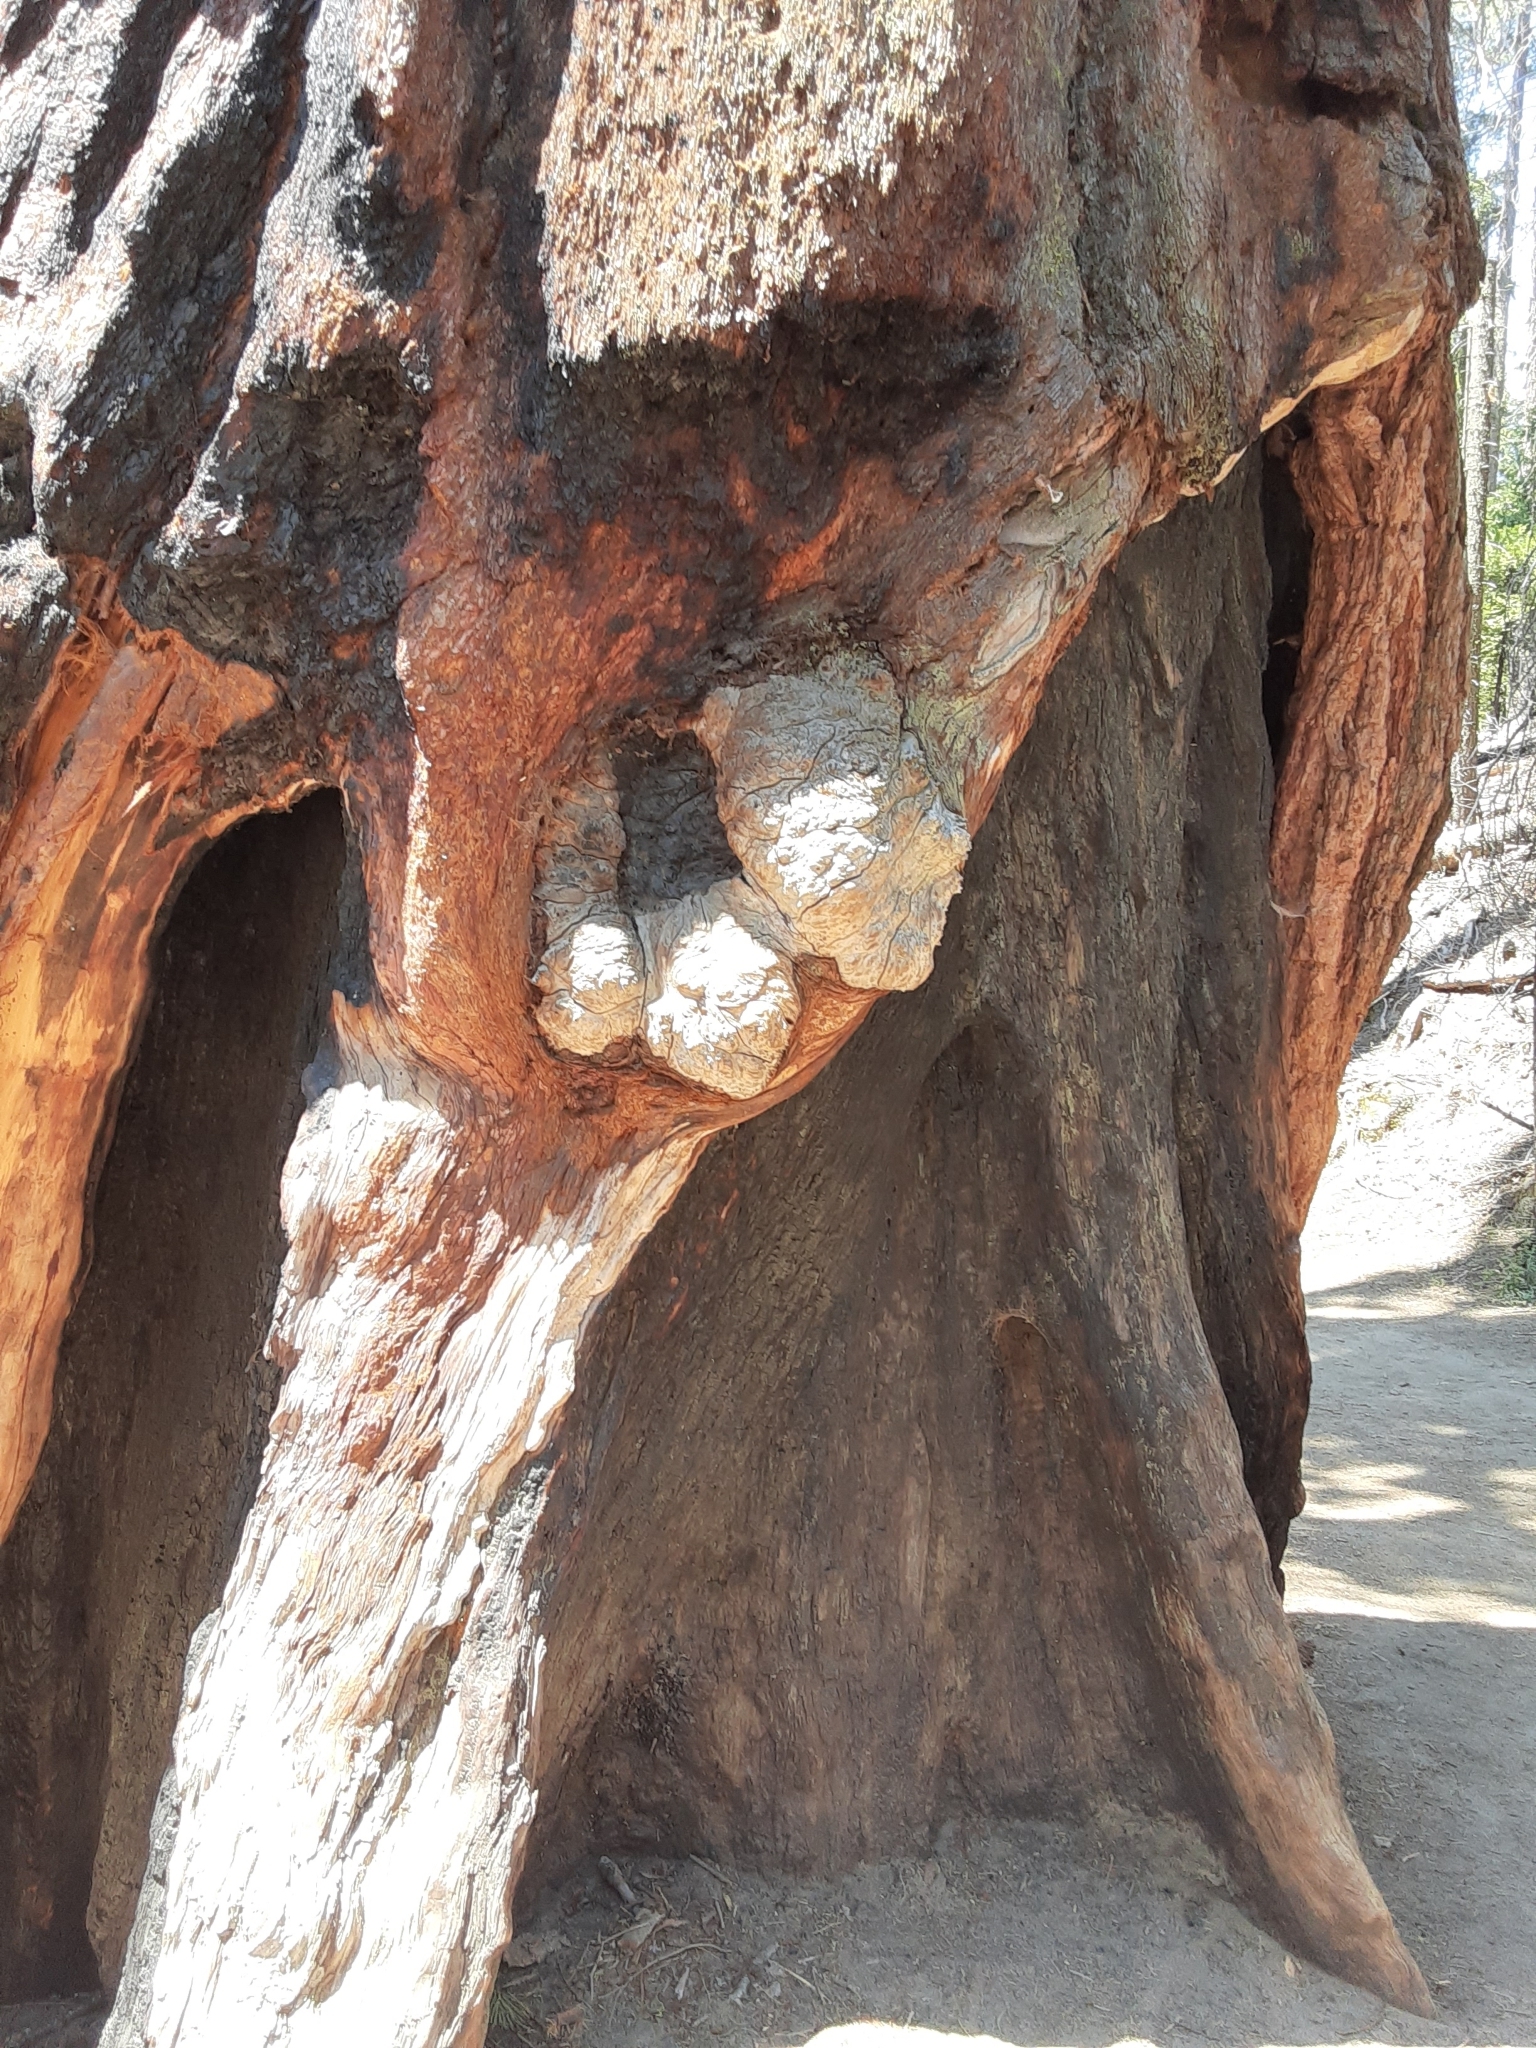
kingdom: Plantae
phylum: Tracheophyta
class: Pinopsida
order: Pinales
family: Cupressaceae
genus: Sequoiadendron
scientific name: Sequoiadendron giganteum
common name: Wellingtonia
